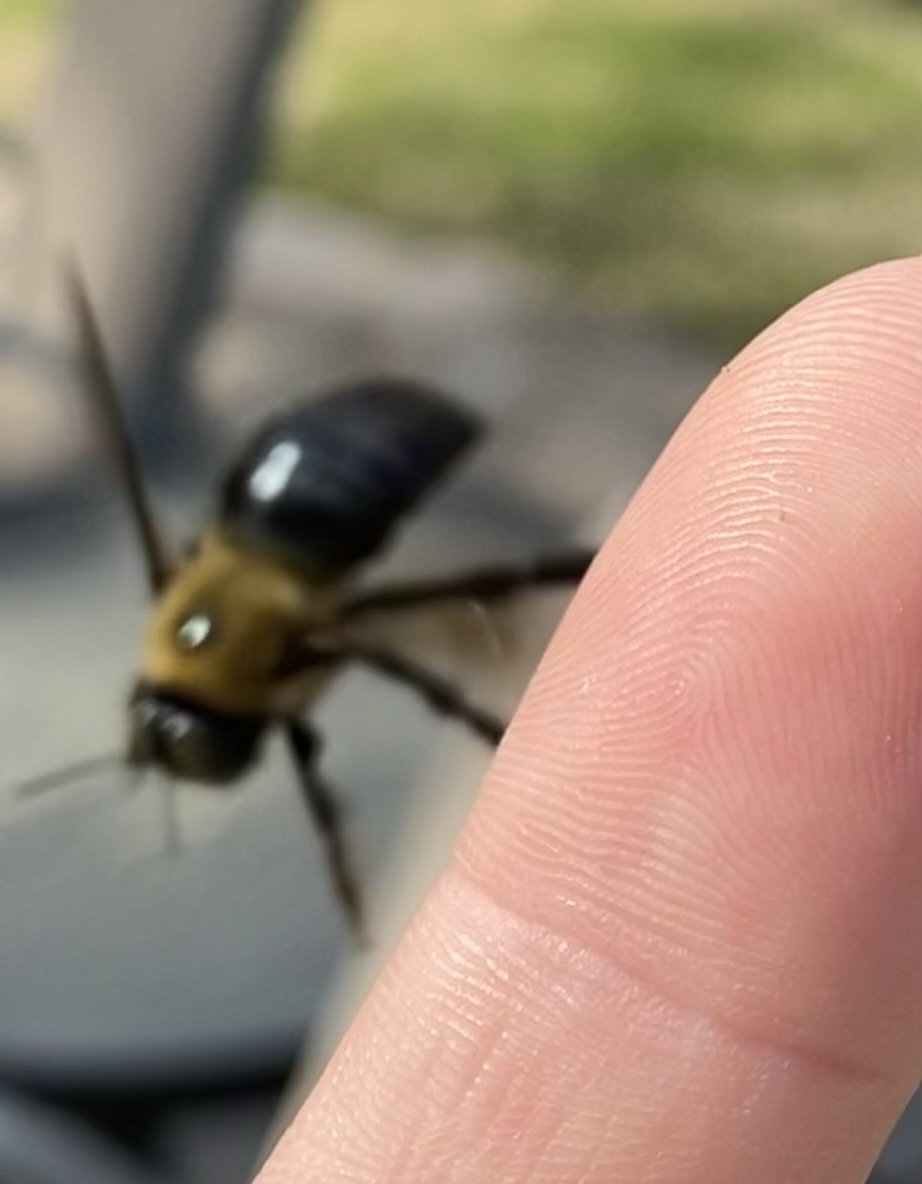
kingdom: Animalia
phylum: Arthropoda
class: Insecta
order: Hymenoptera
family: Apidae
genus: Xylocopa
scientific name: Xylocopa virginica
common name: Carpenter bee
